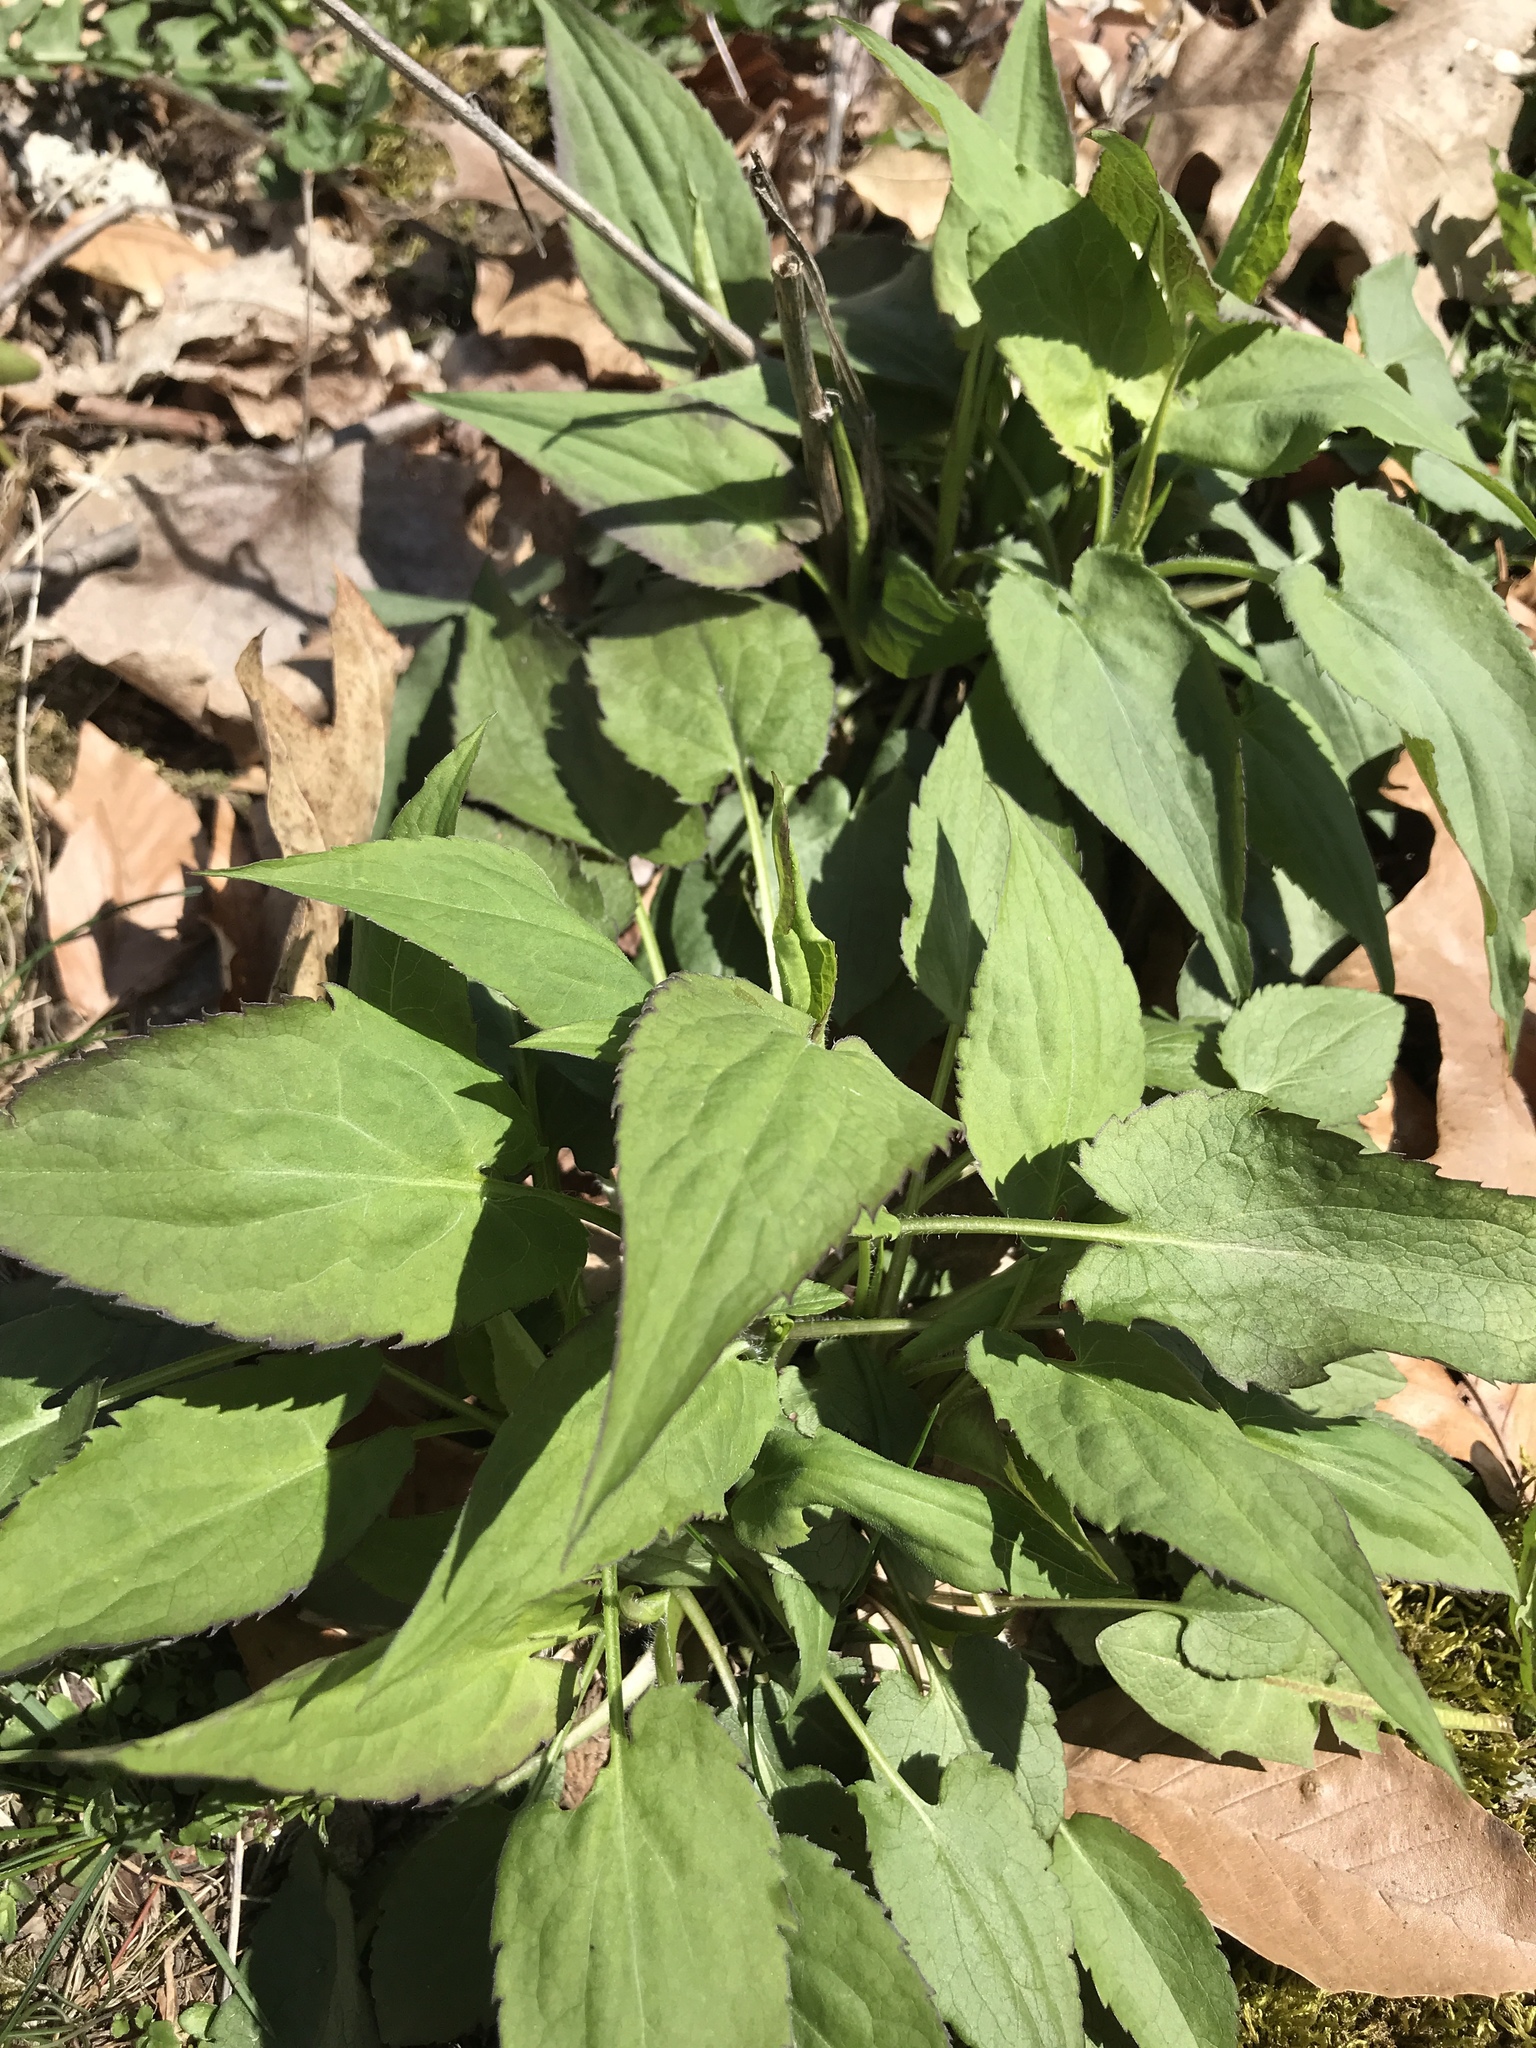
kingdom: Plantae
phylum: Tracheophyta
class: Magnoliopsida
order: Asterales
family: Asteraceae
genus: Symphyotrichum
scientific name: Symphyotrichum cordifolium
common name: Beeweed
